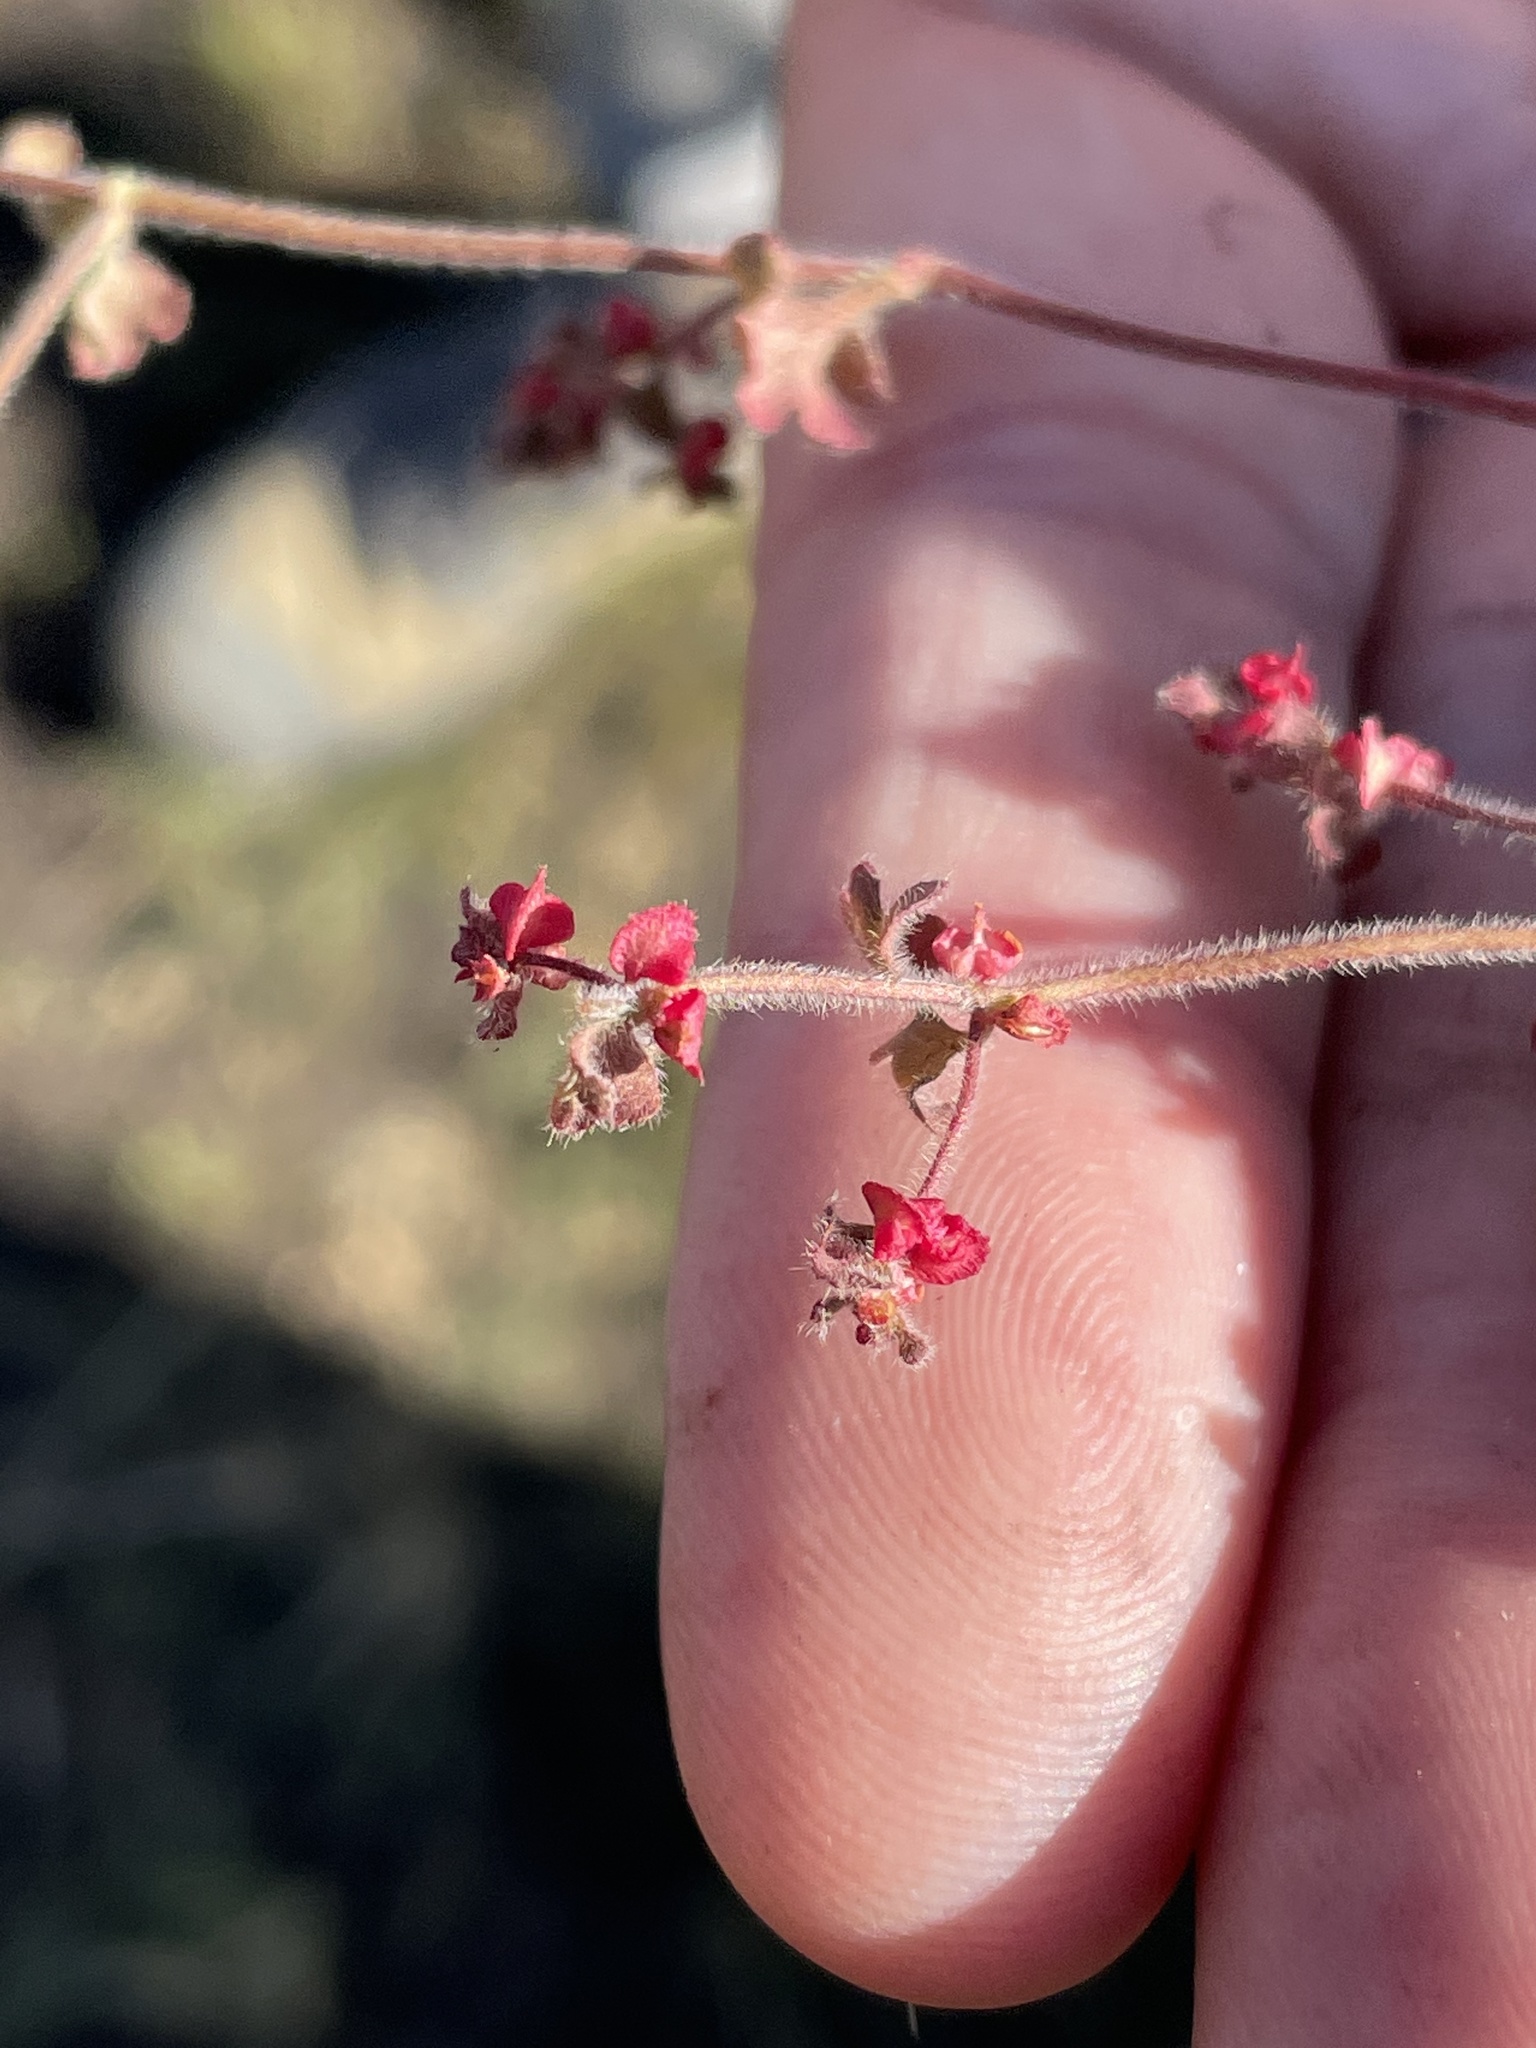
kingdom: Plantae
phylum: Tracheophyta
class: Magnoliopsida
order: Caryophyllales
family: Polygonaceae
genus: Pterostegia
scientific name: Pterostegia drymarioides
